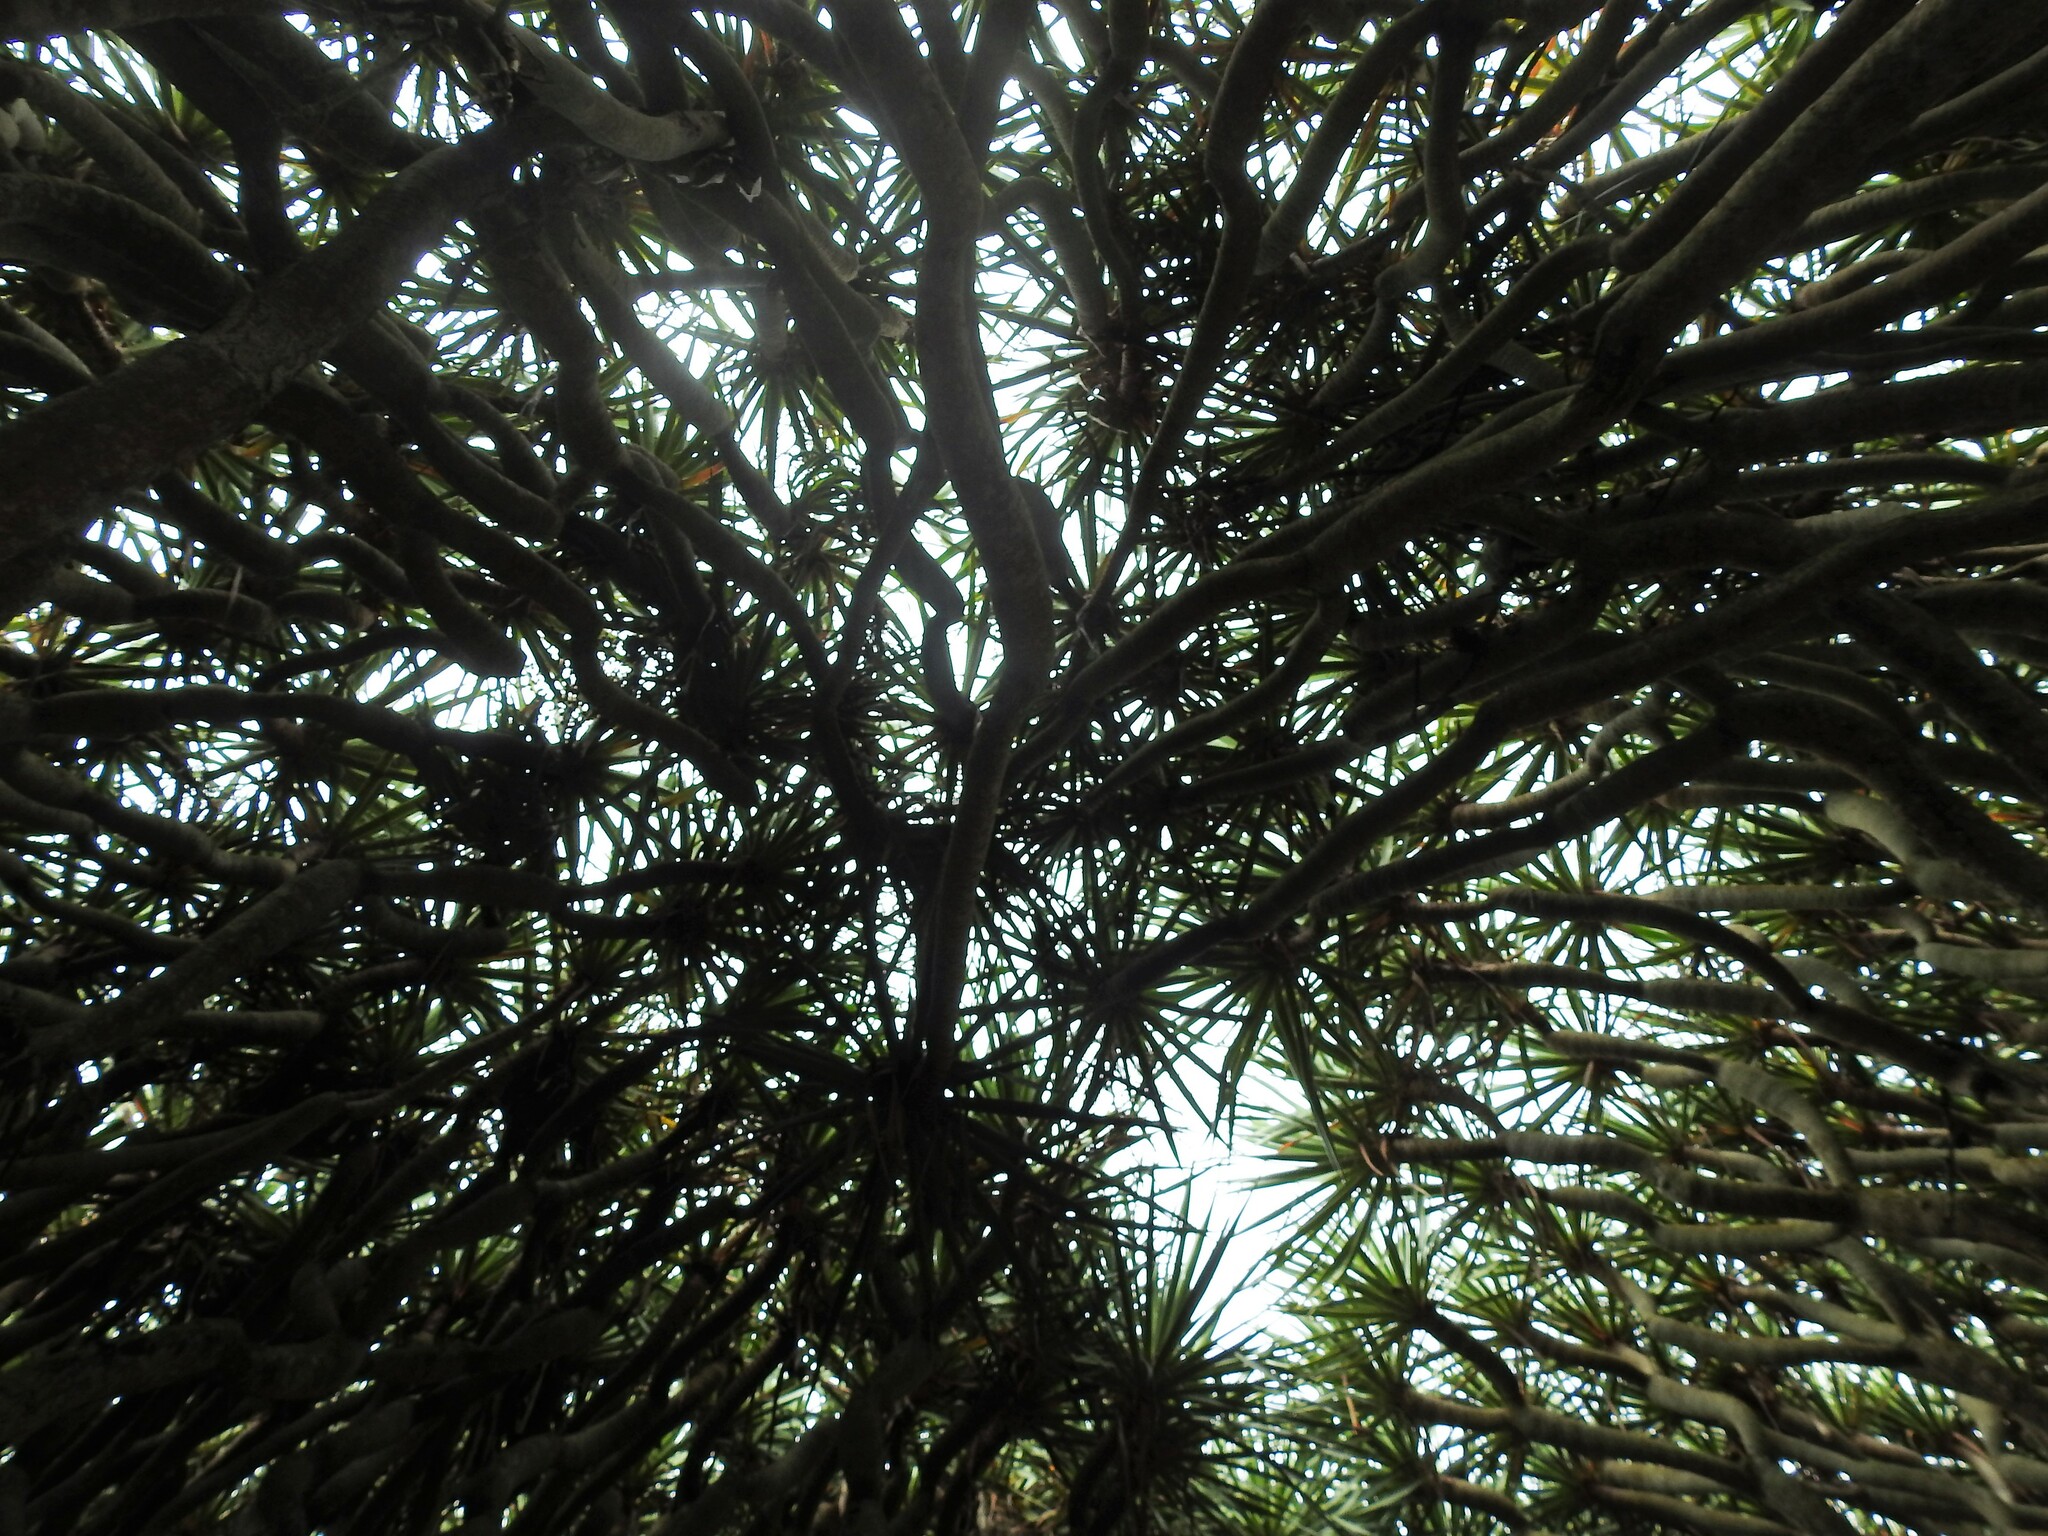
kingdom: Plantae
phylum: Tracheophyta
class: Liliopsida
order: Asparagales
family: Asparagaceae
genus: Dracaena
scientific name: Dracaena draco
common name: Canary island dragon tree
